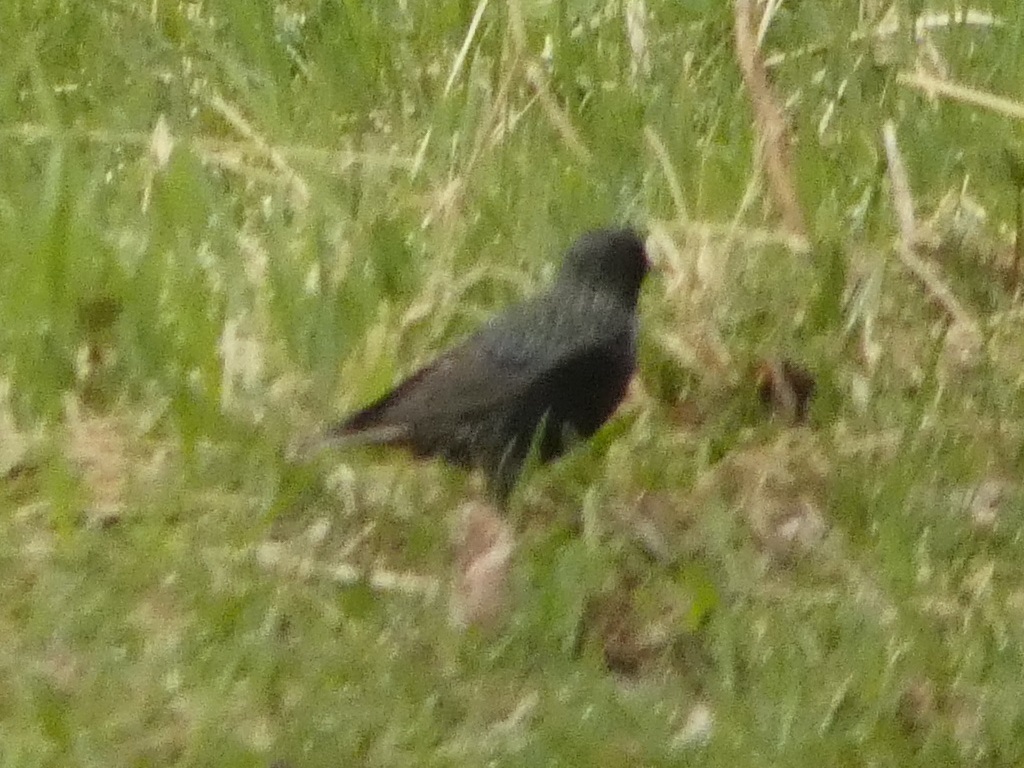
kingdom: Animalia
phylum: Chordata
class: Aves
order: Passeriformes
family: Sturnidae
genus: Sturnus
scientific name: Sturnus vulgaris
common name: Common starling
